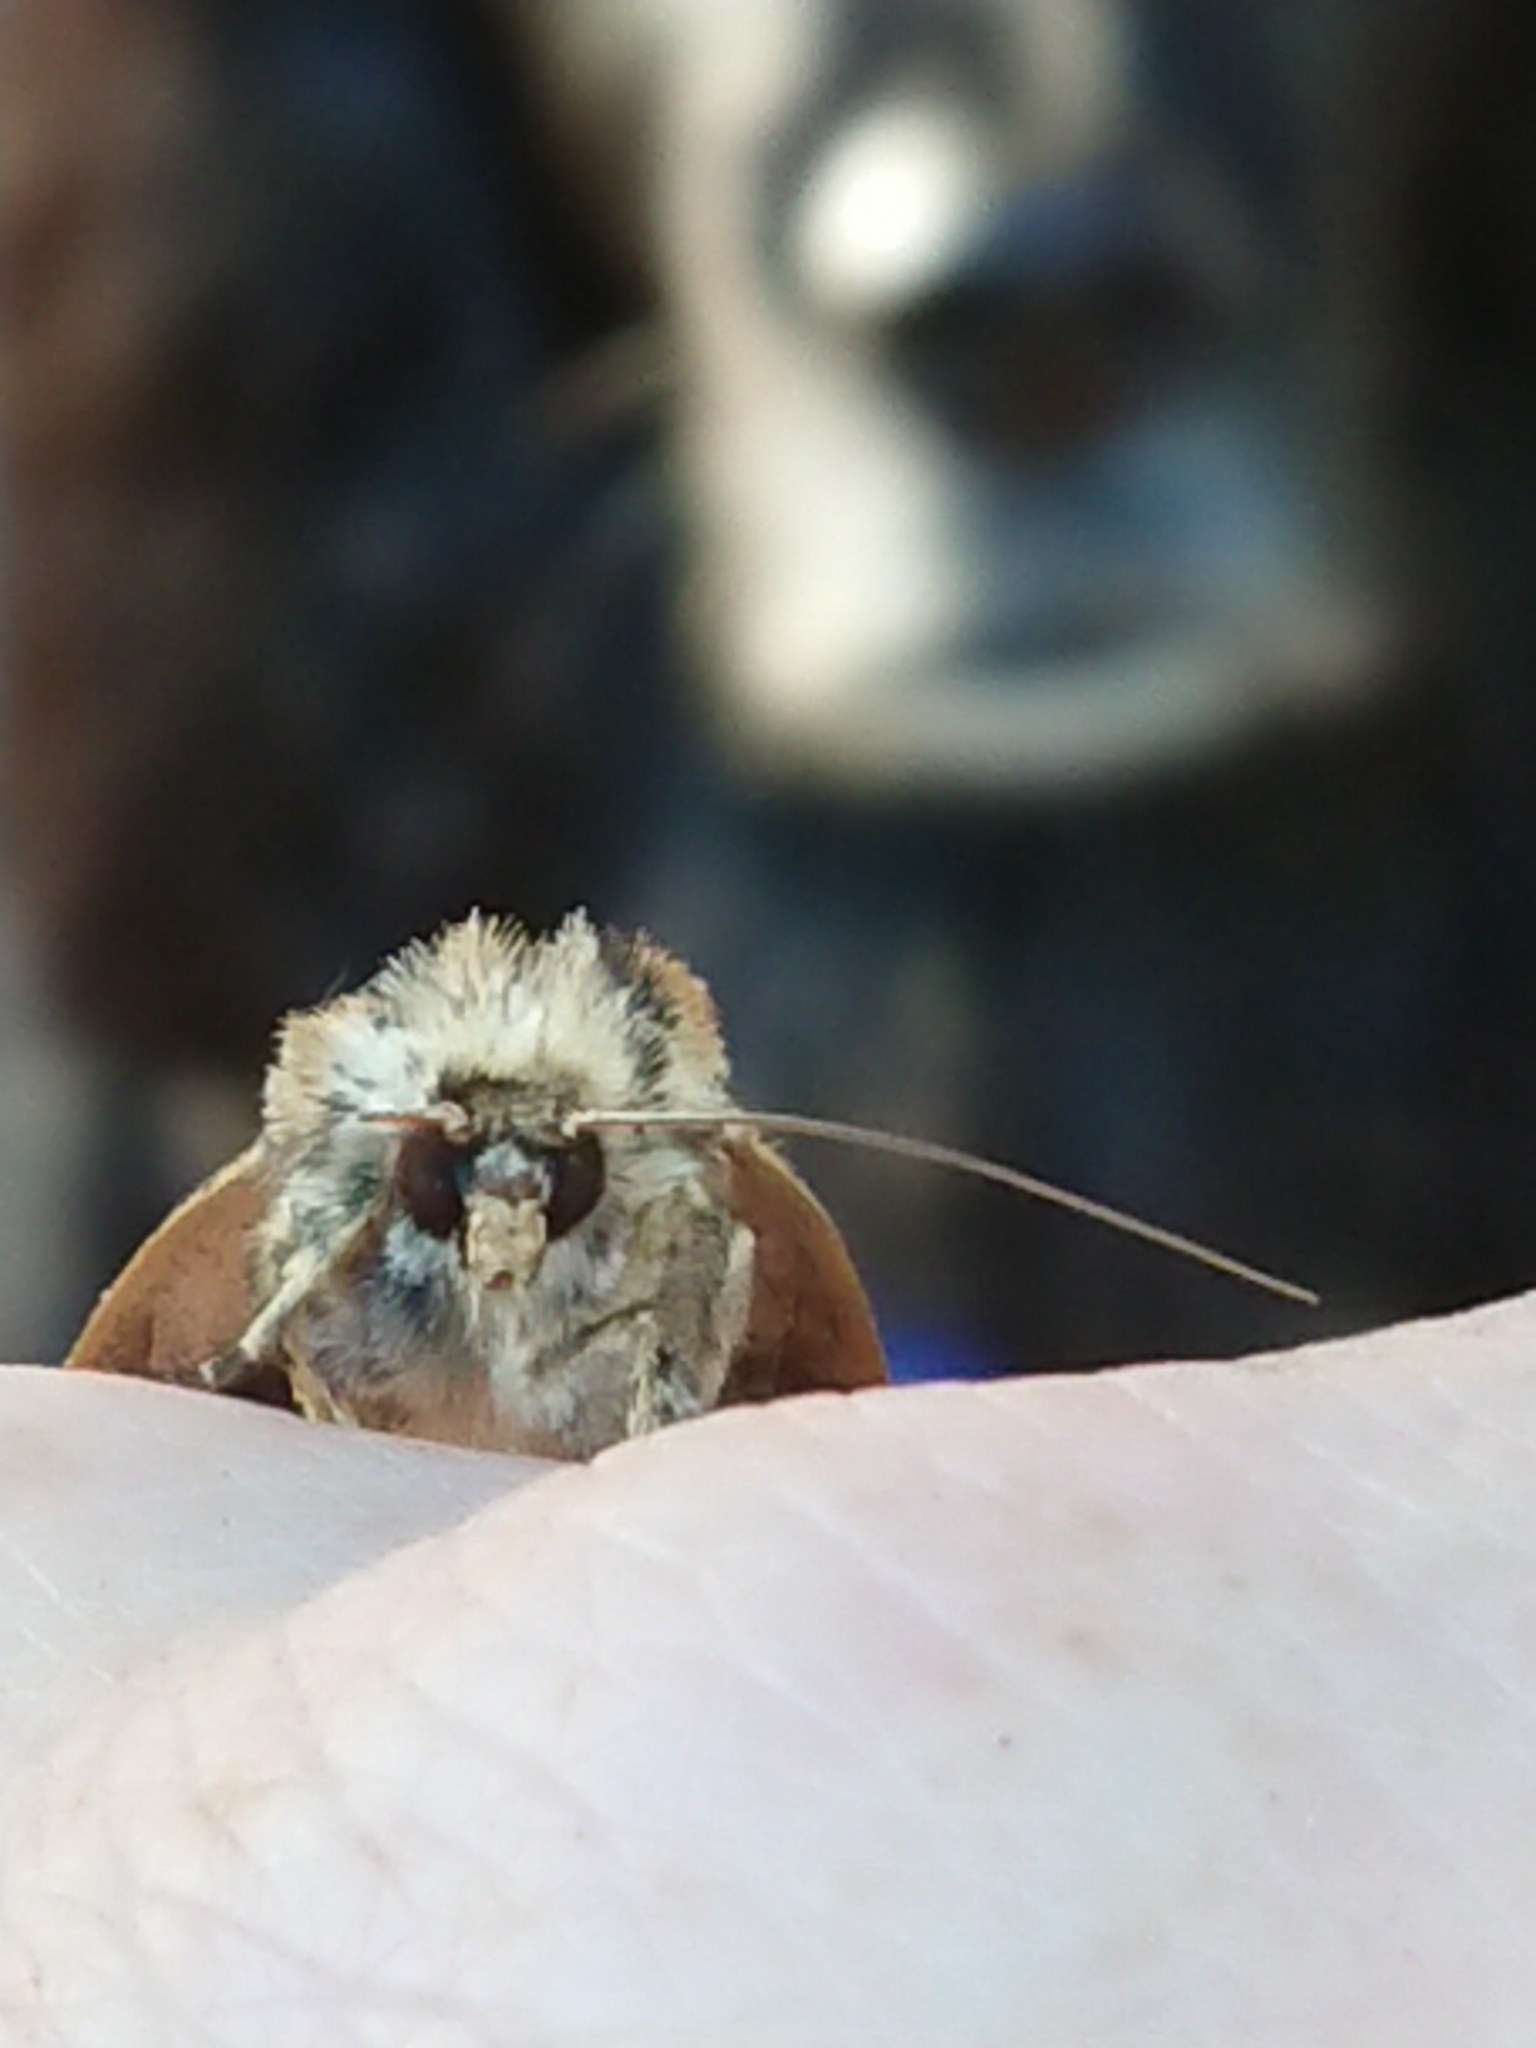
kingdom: Animalia
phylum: Arthropoda
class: Insecta
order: Lepidoptera
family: Noctuidae
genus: Proteuxoa
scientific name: Proteuxoa sanguinipuncta
